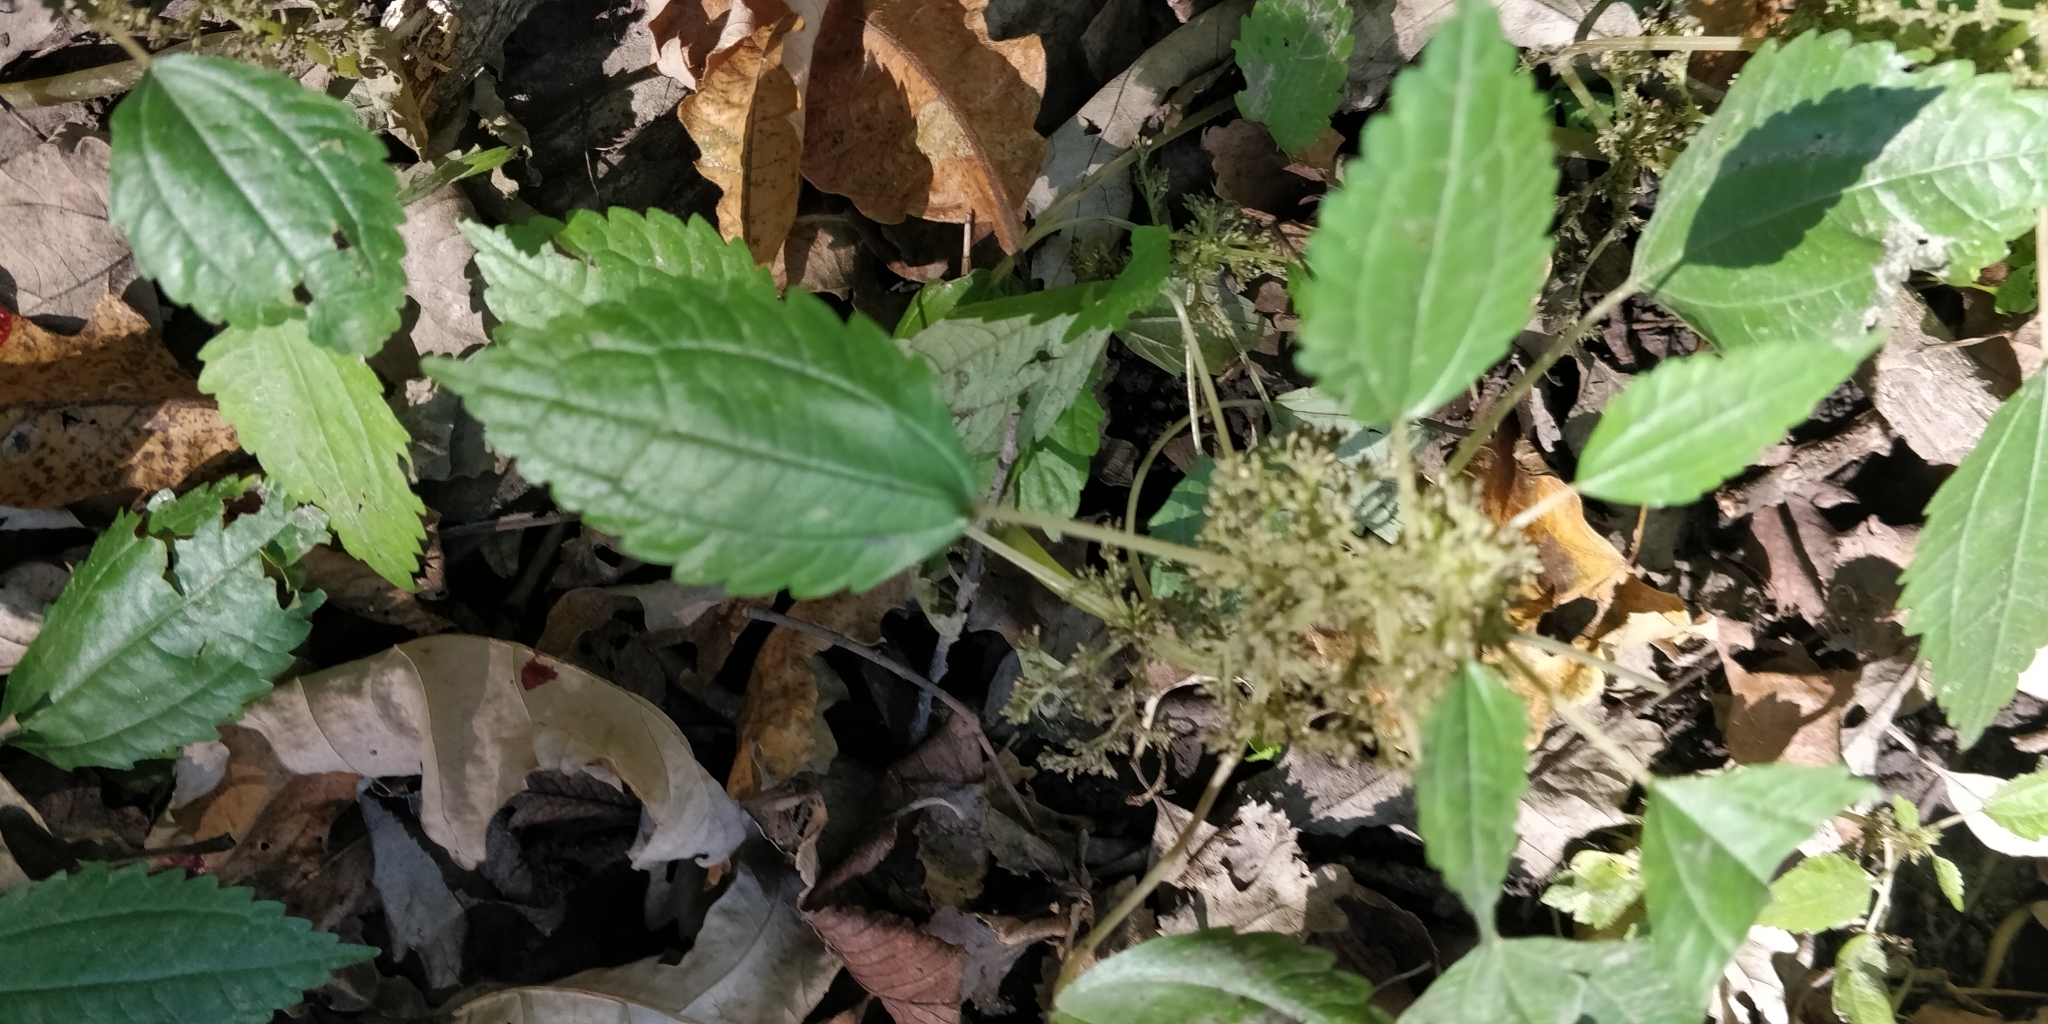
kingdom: Plantae
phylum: Tracheophyta
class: Magnoliopsida
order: Rosales
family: Urticaceae
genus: Pilea
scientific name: Pilea pumila
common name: Clearweed
